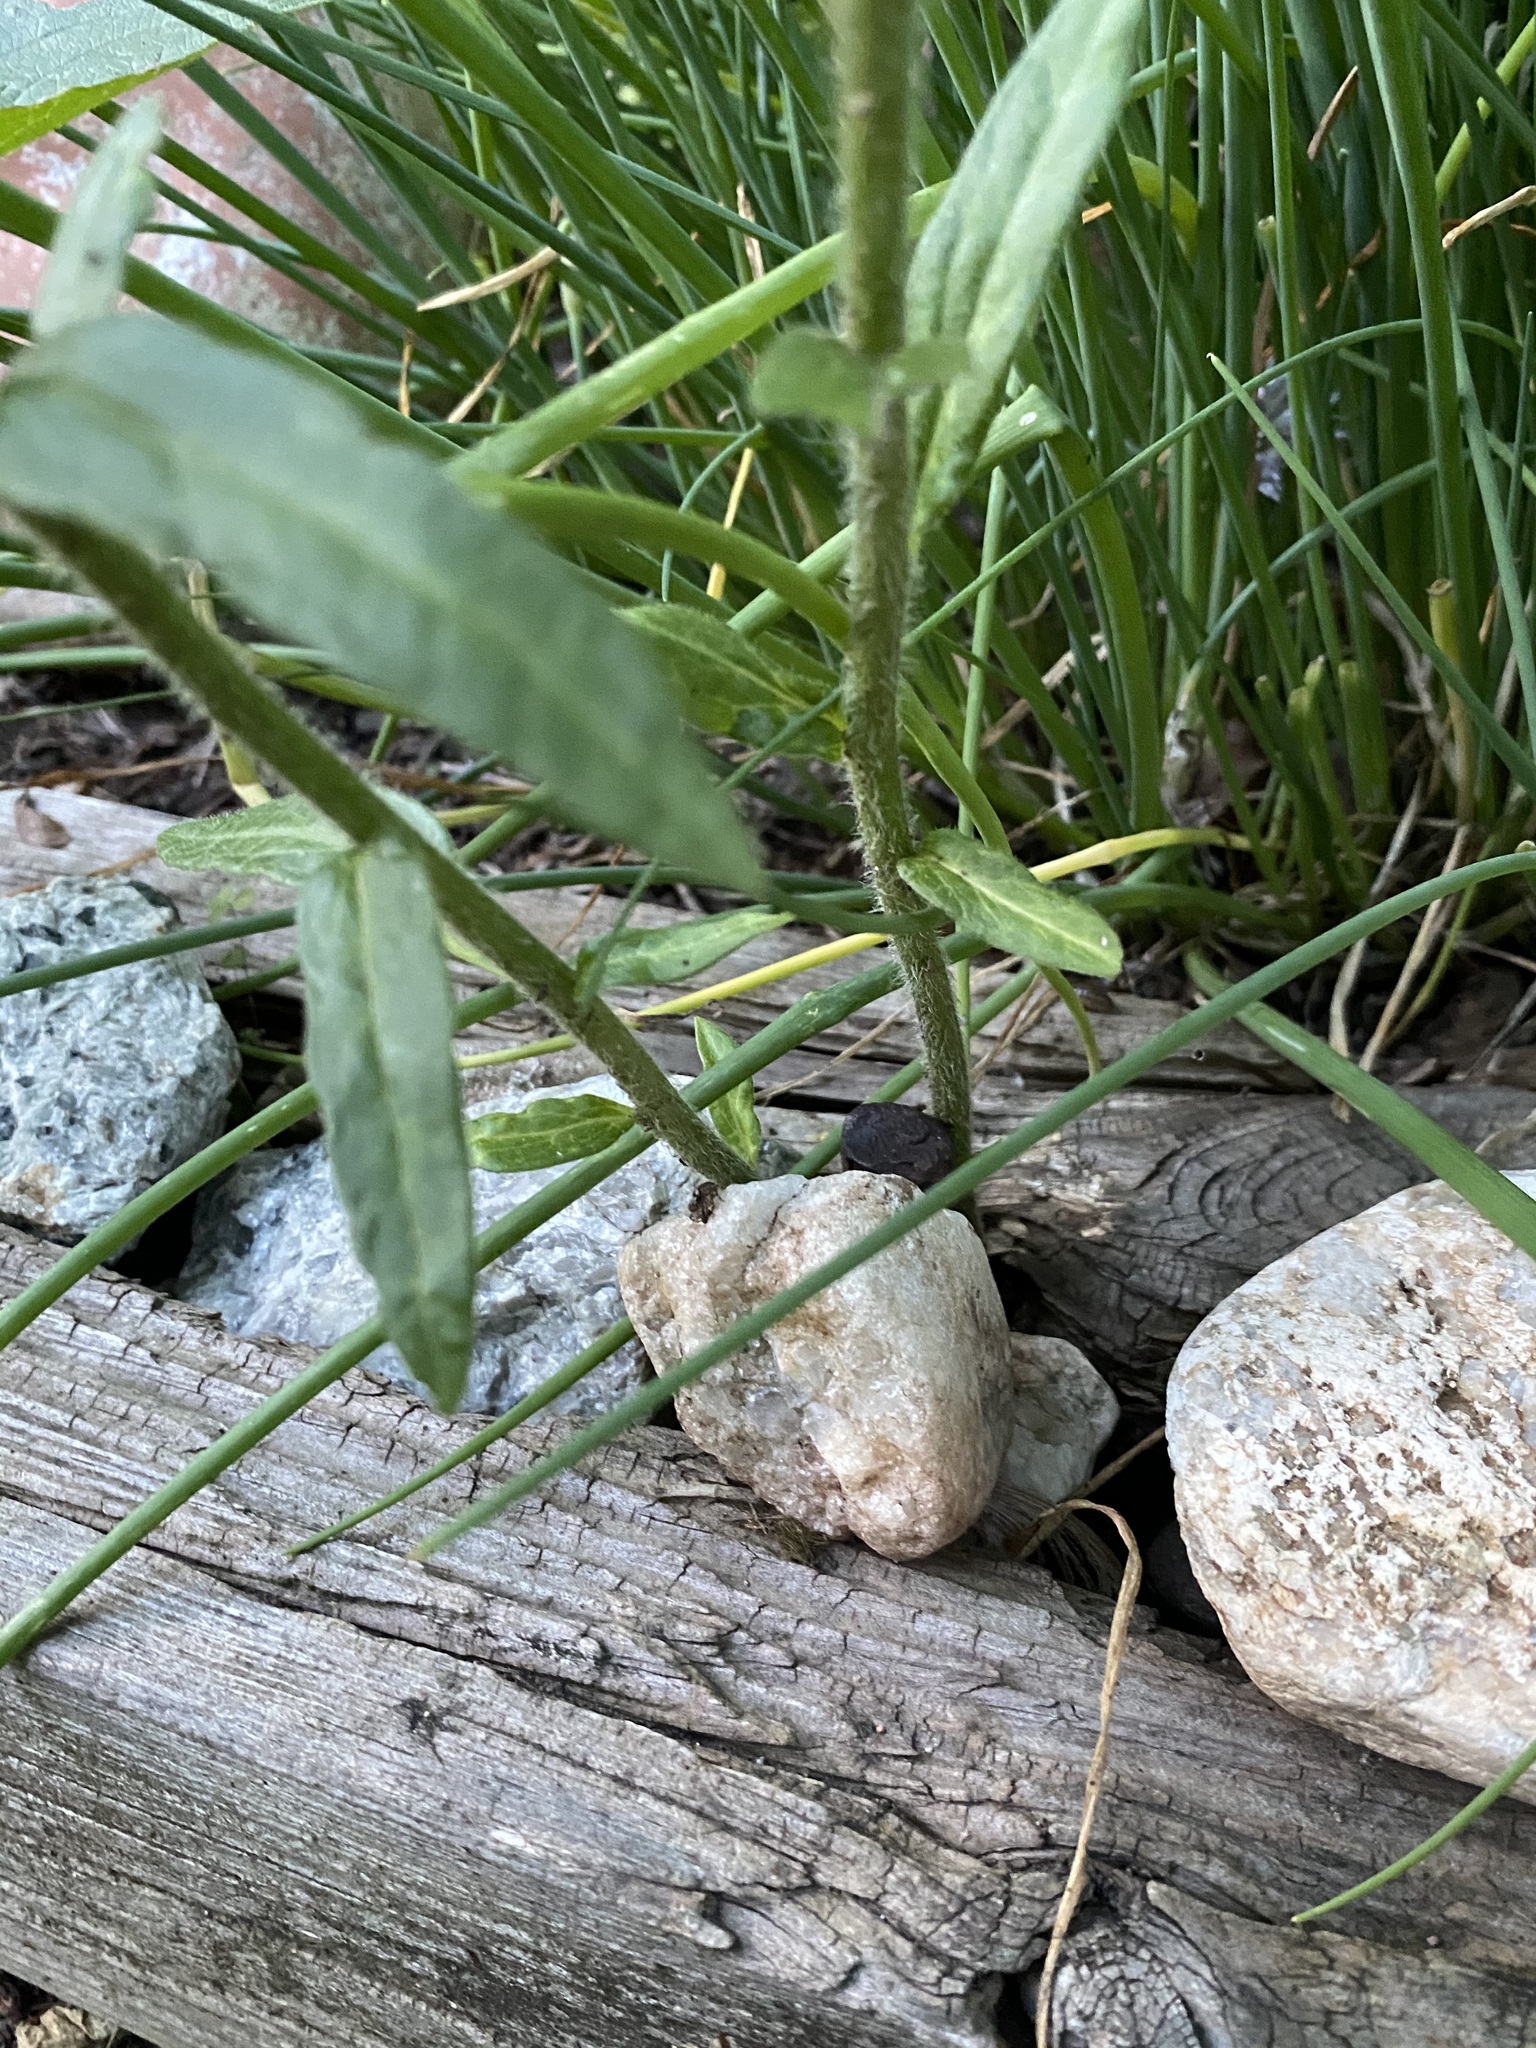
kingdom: Plantae
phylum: Tracheophyta
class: Magnoliopsida
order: Gentianales
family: Apocynaceae
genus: Asclepias
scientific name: Asclepias tuberosa
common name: Butterfly milkweed
